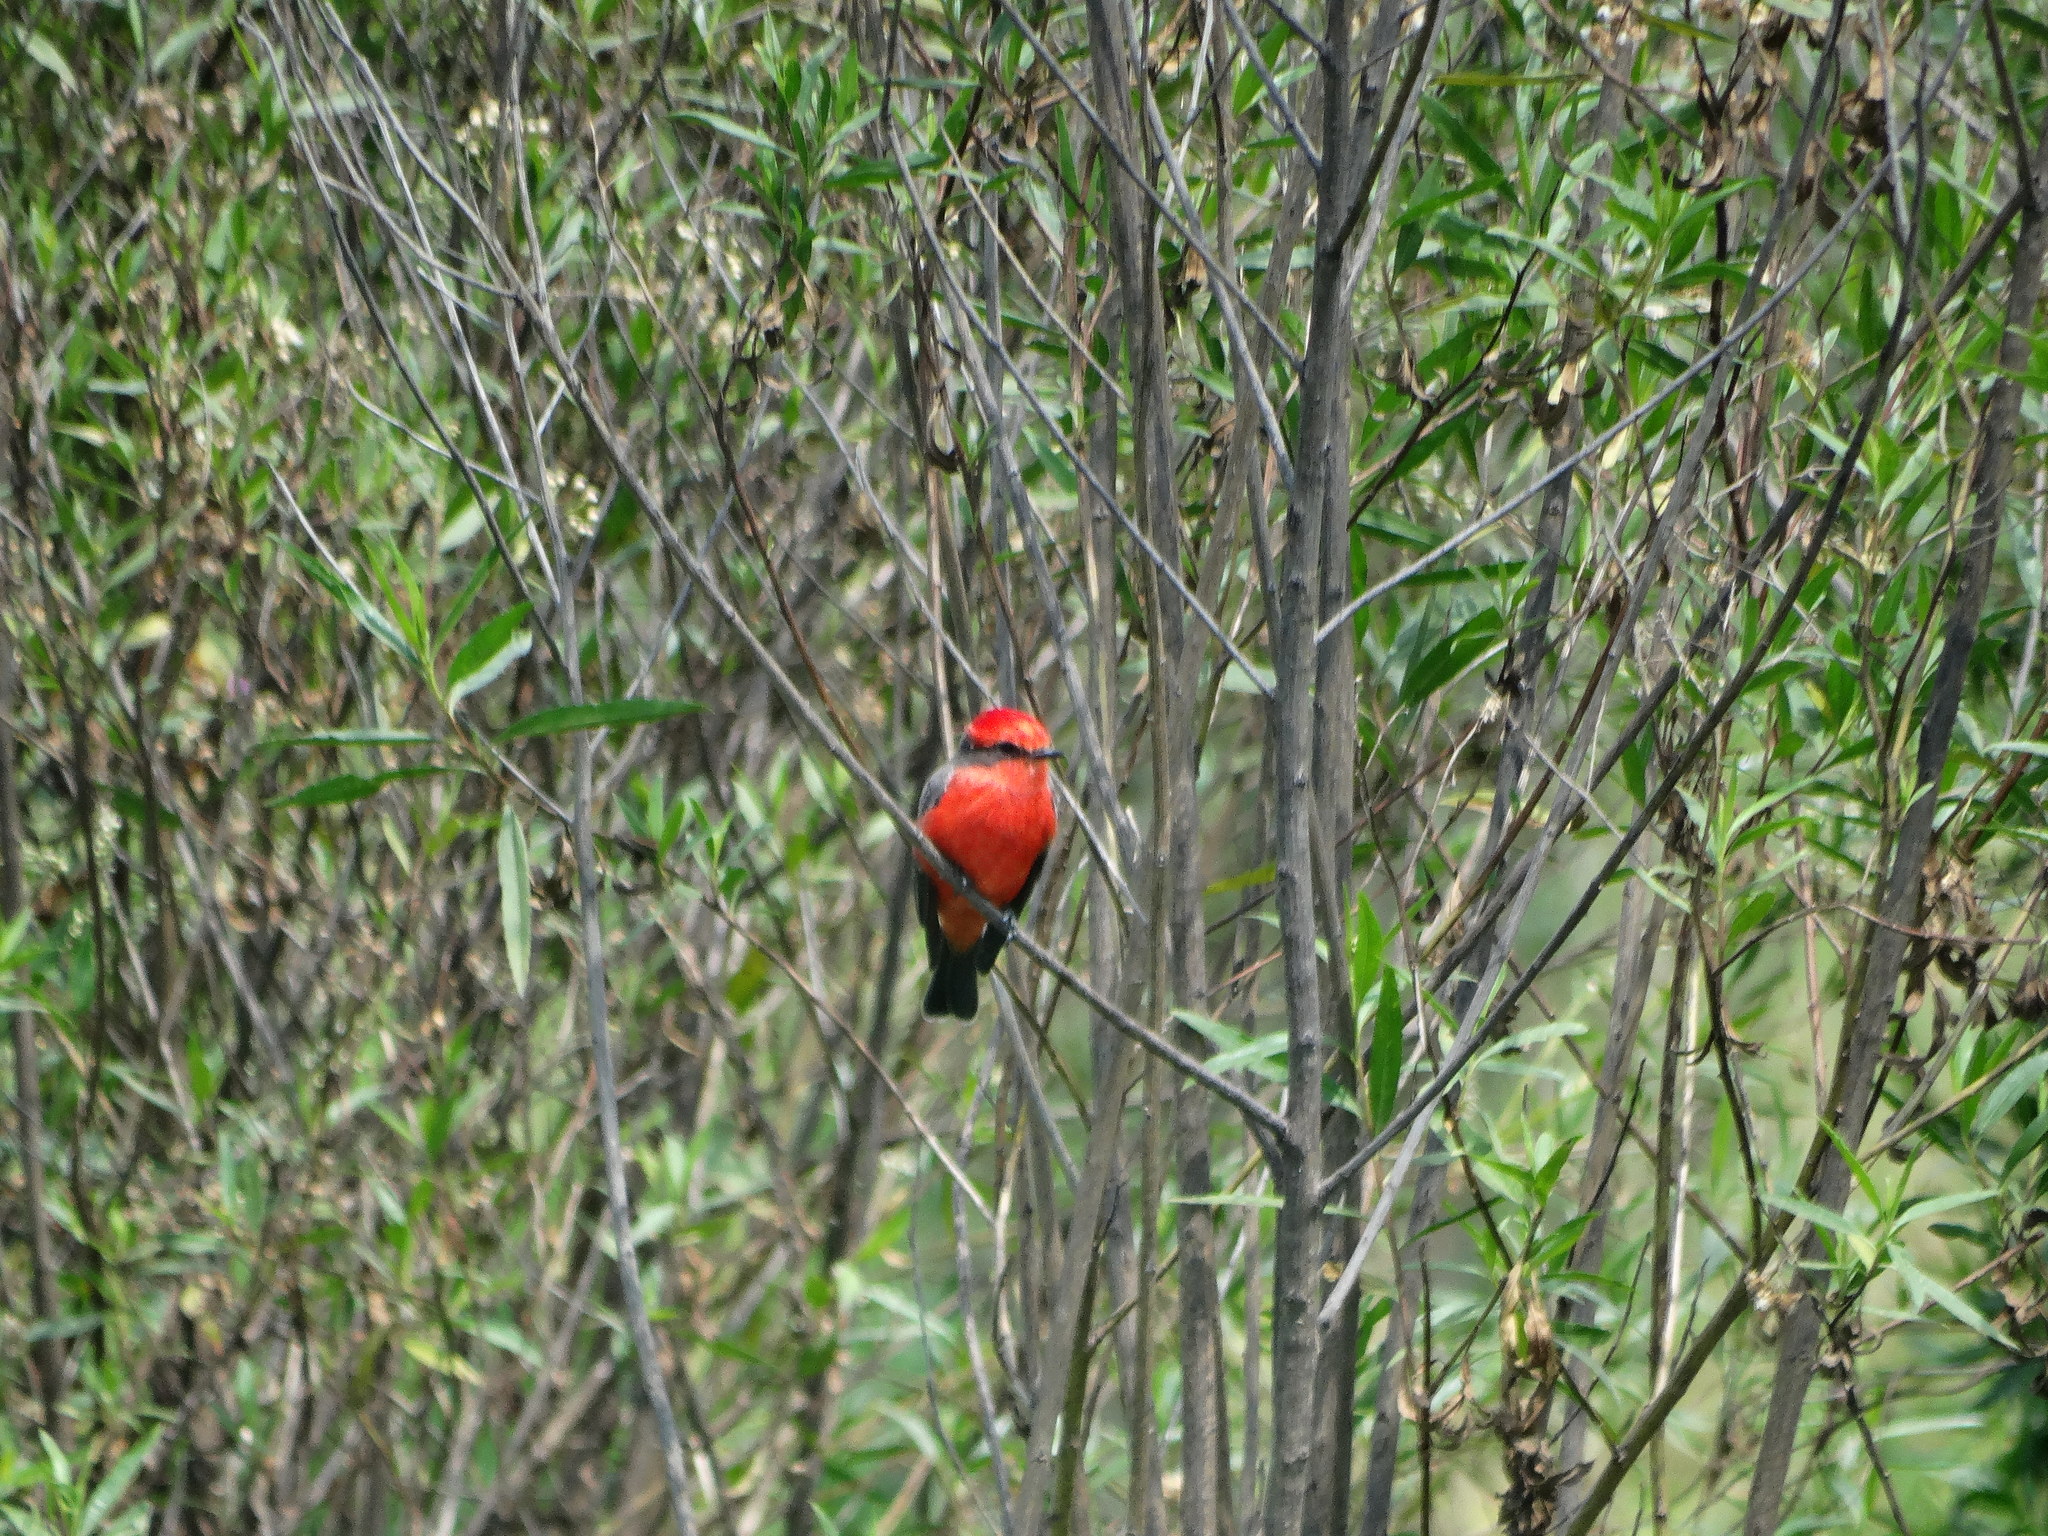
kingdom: Animalia
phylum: Chordata
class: Aves
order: Passeriformes
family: Tyrannidae
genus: Pyrocephalus
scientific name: Pyrocephalus rubinus
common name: Vermilion flycatcher
